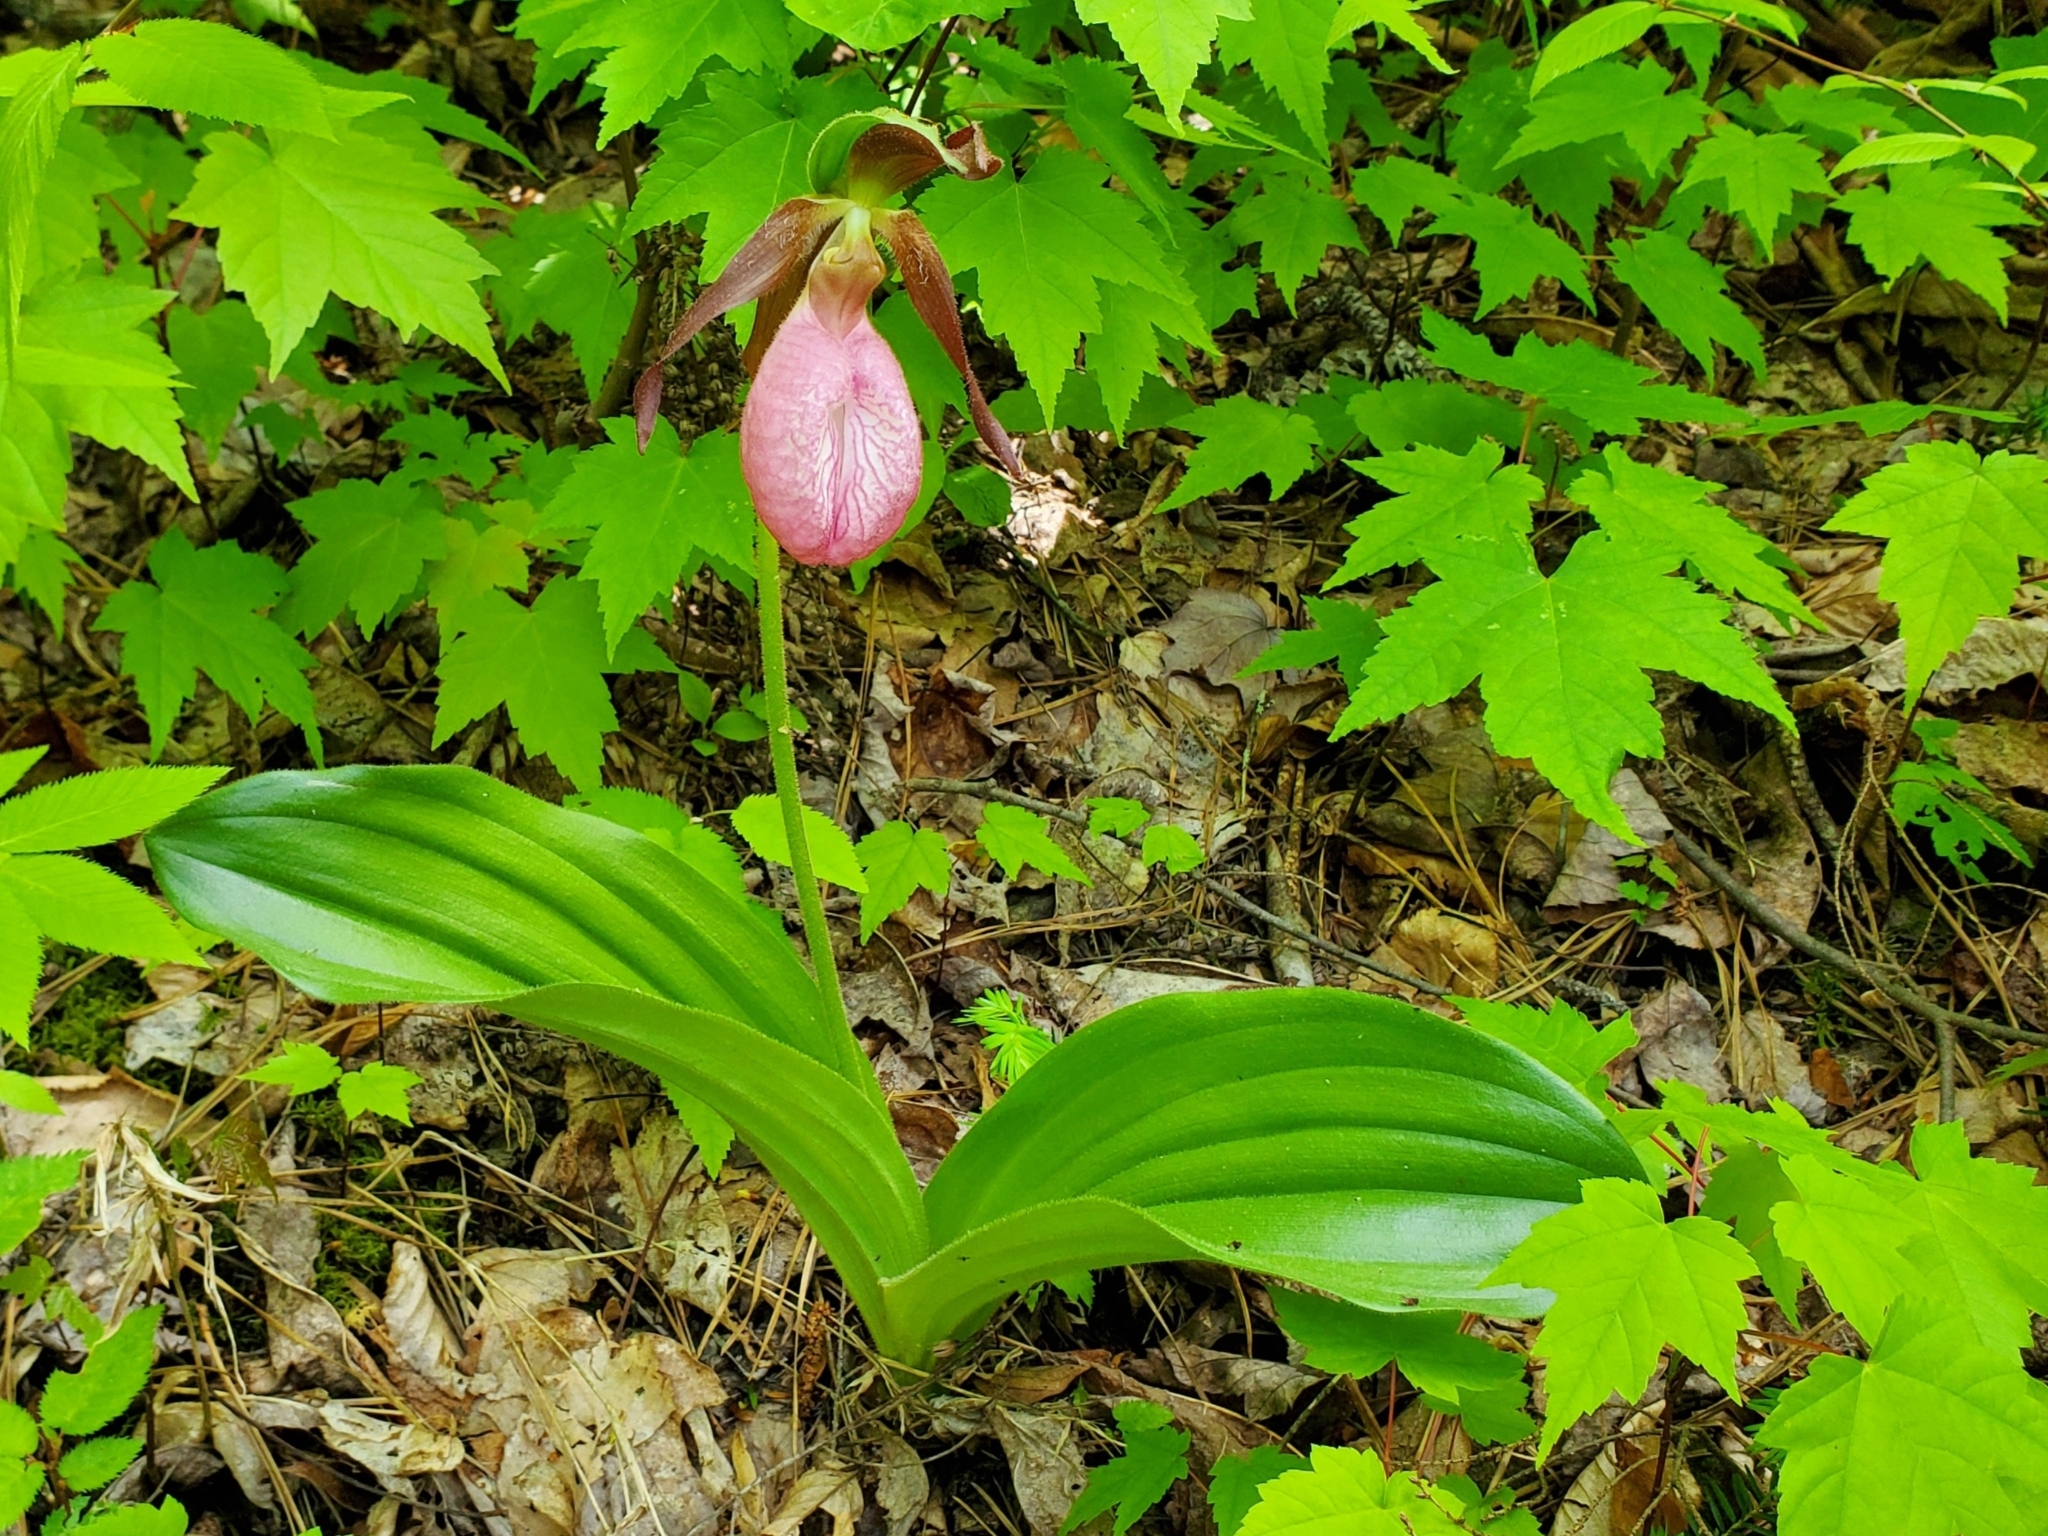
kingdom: Plantae
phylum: Tracheophyta
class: Liliopsida
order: Asparagales
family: Orchidaceae
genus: Cypripedium
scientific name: Cypripedium acaule
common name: Pink lady's-slipper
